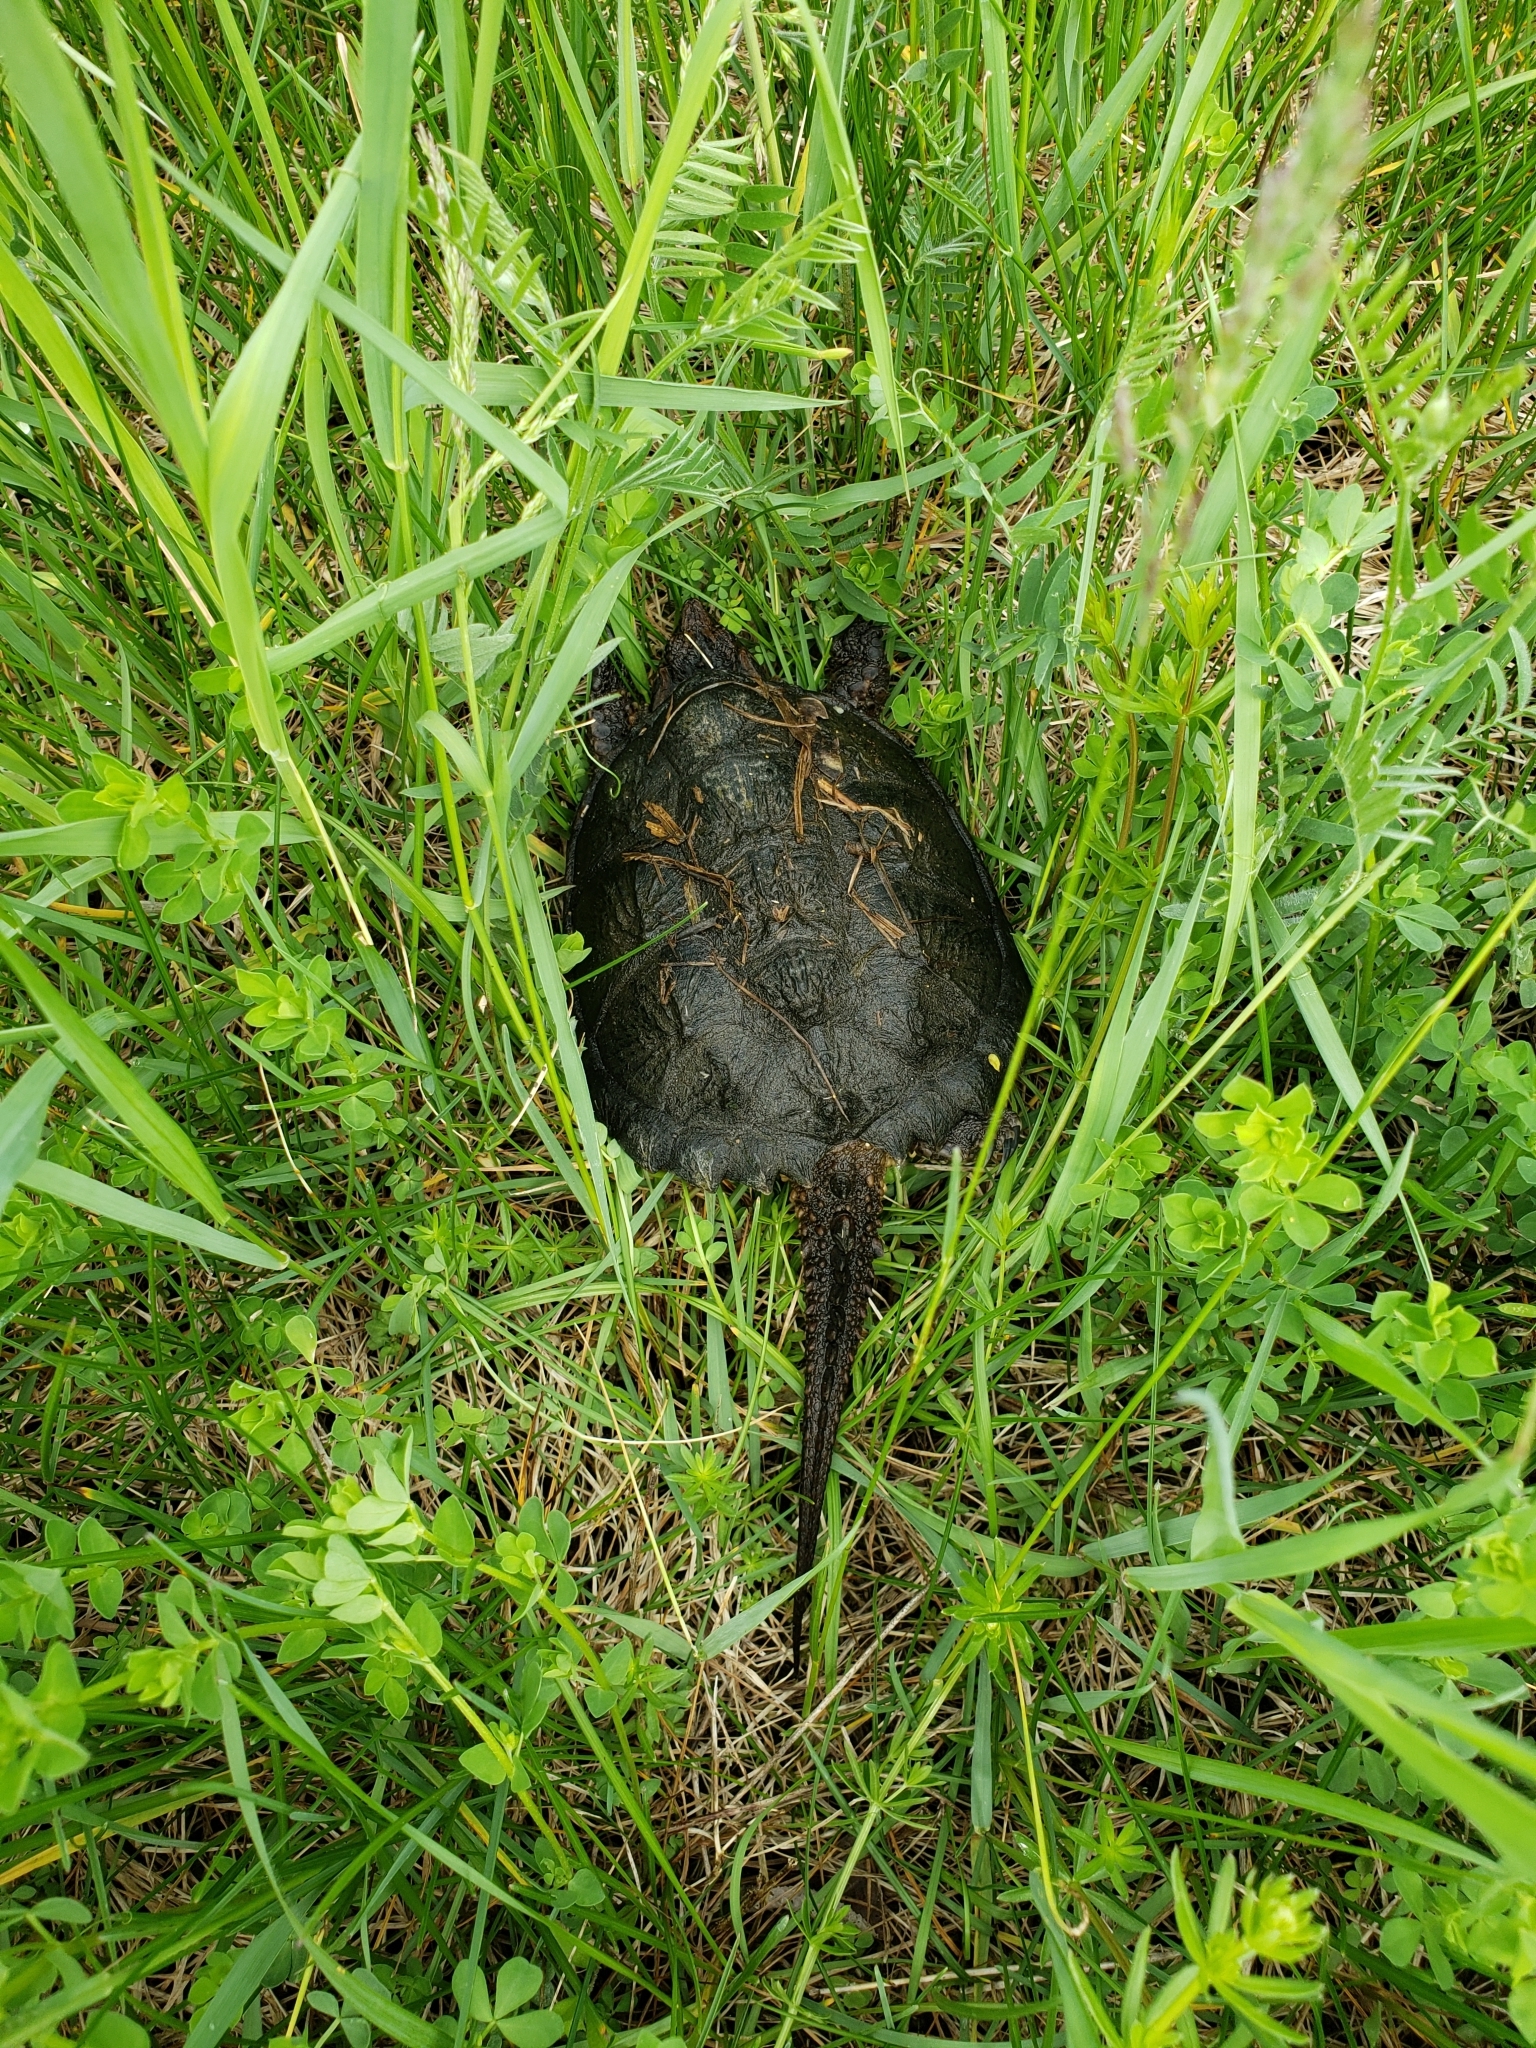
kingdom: Animalia
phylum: Chordata
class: Testudines
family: Chelydridae
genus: Chelydra
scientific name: Chelydra serpentina
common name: Common snapping turtle
